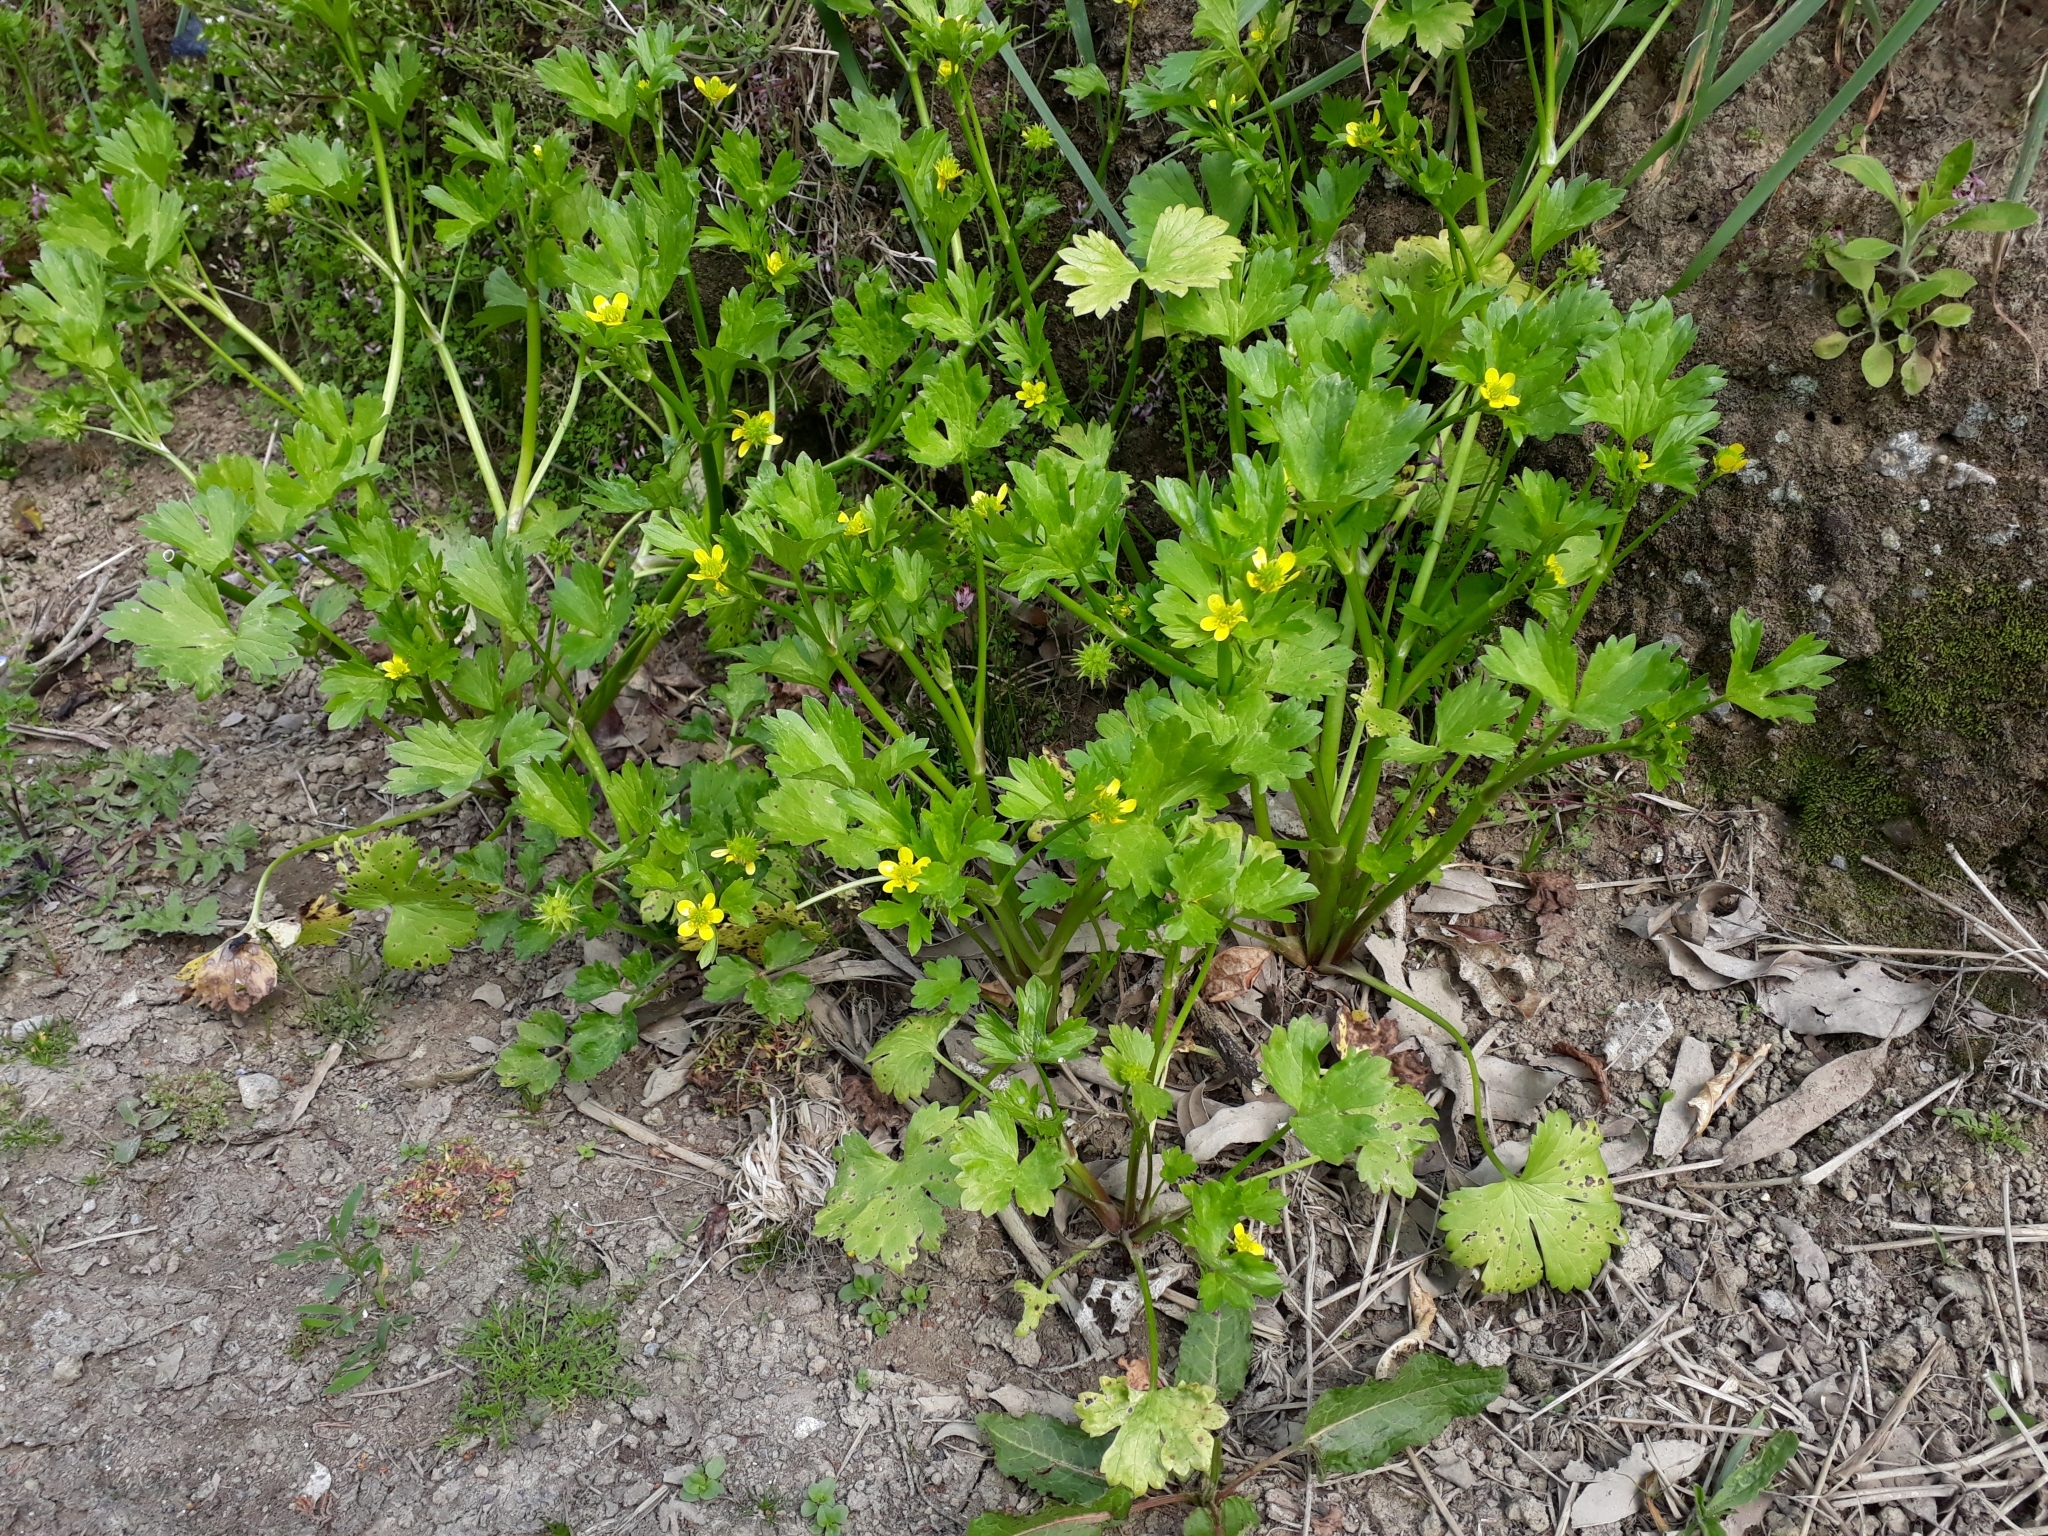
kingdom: Plantae
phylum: Tracheophyta
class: Magnoliopsida
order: Ranunculales
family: Ranunculaceae
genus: Ranunculus
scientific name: Ranunculus muricatus
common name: Rough-fruited buttercup
